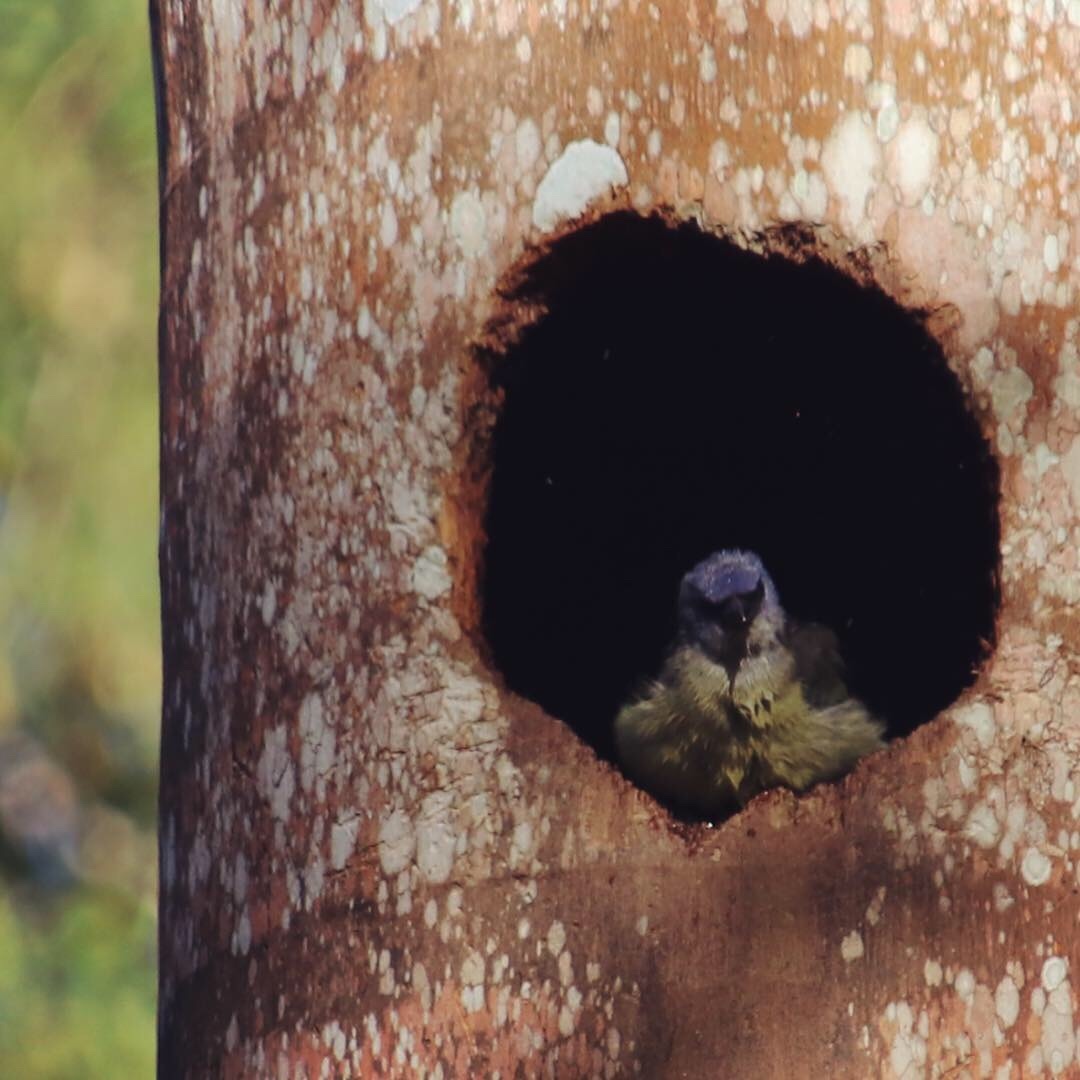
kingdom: Animalia
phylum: Chordata
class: Aves
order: Passeriformes
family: Thraupidae
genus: Thraupis
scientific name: Thraupis abbas
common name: Yellow-winged tanager
